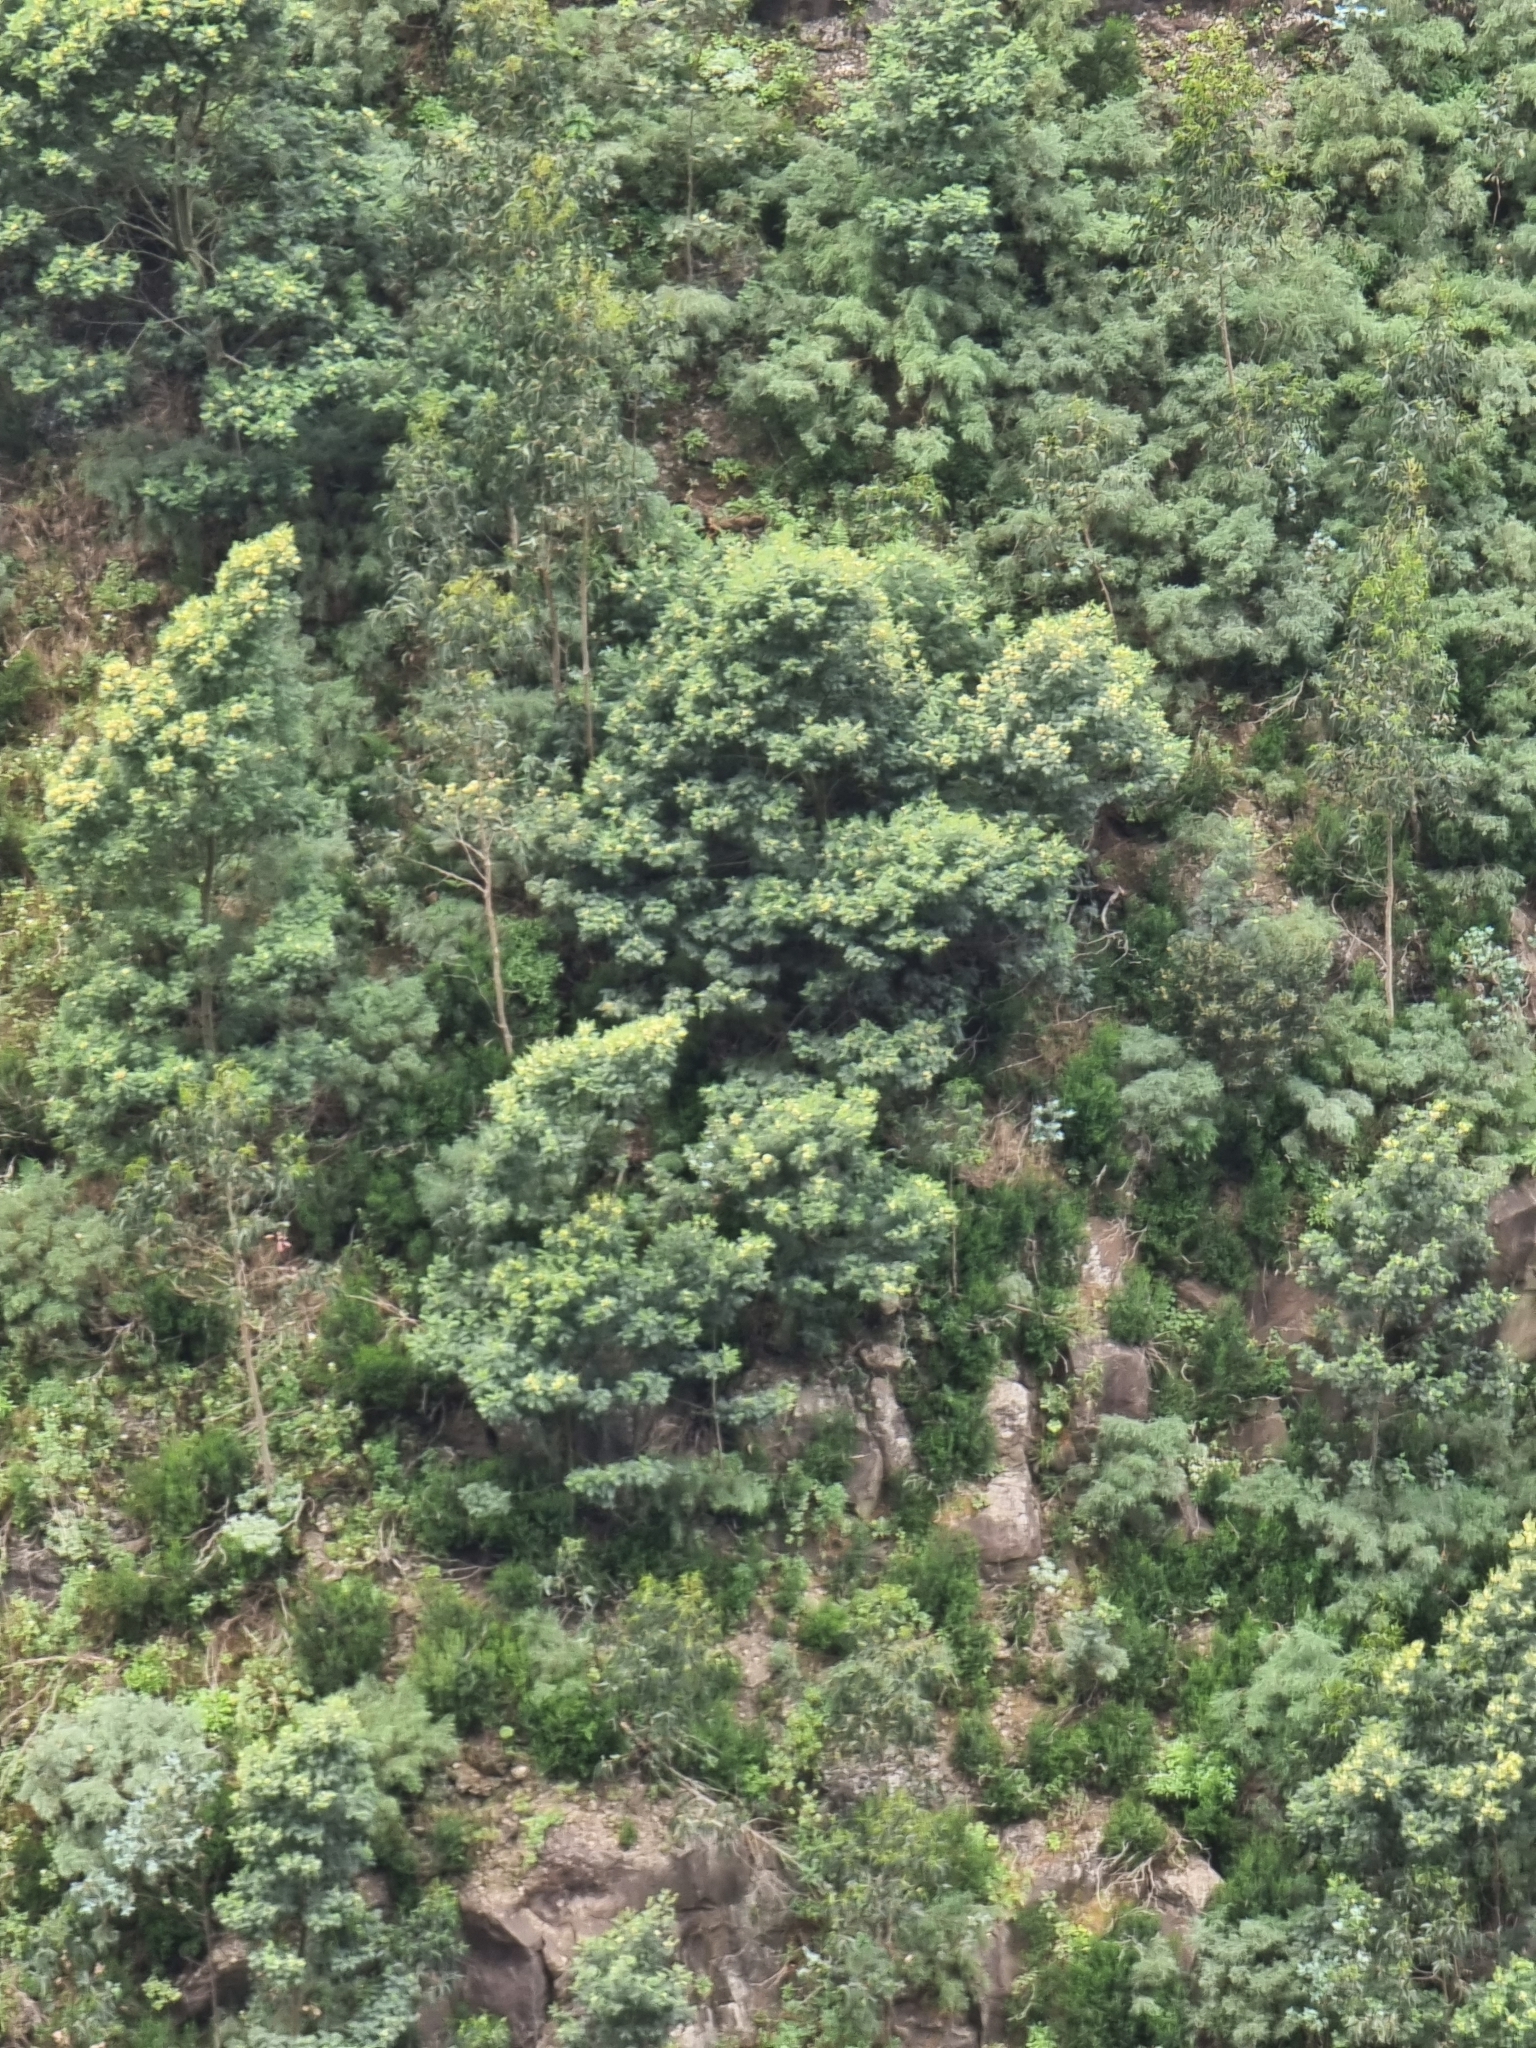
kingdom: Plantae
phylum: Tracheophyta
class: Magnoliopsida
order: Fabales
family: Fabaceae
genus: Acacia
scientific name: Acacia mearnsii
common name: Black wattle
